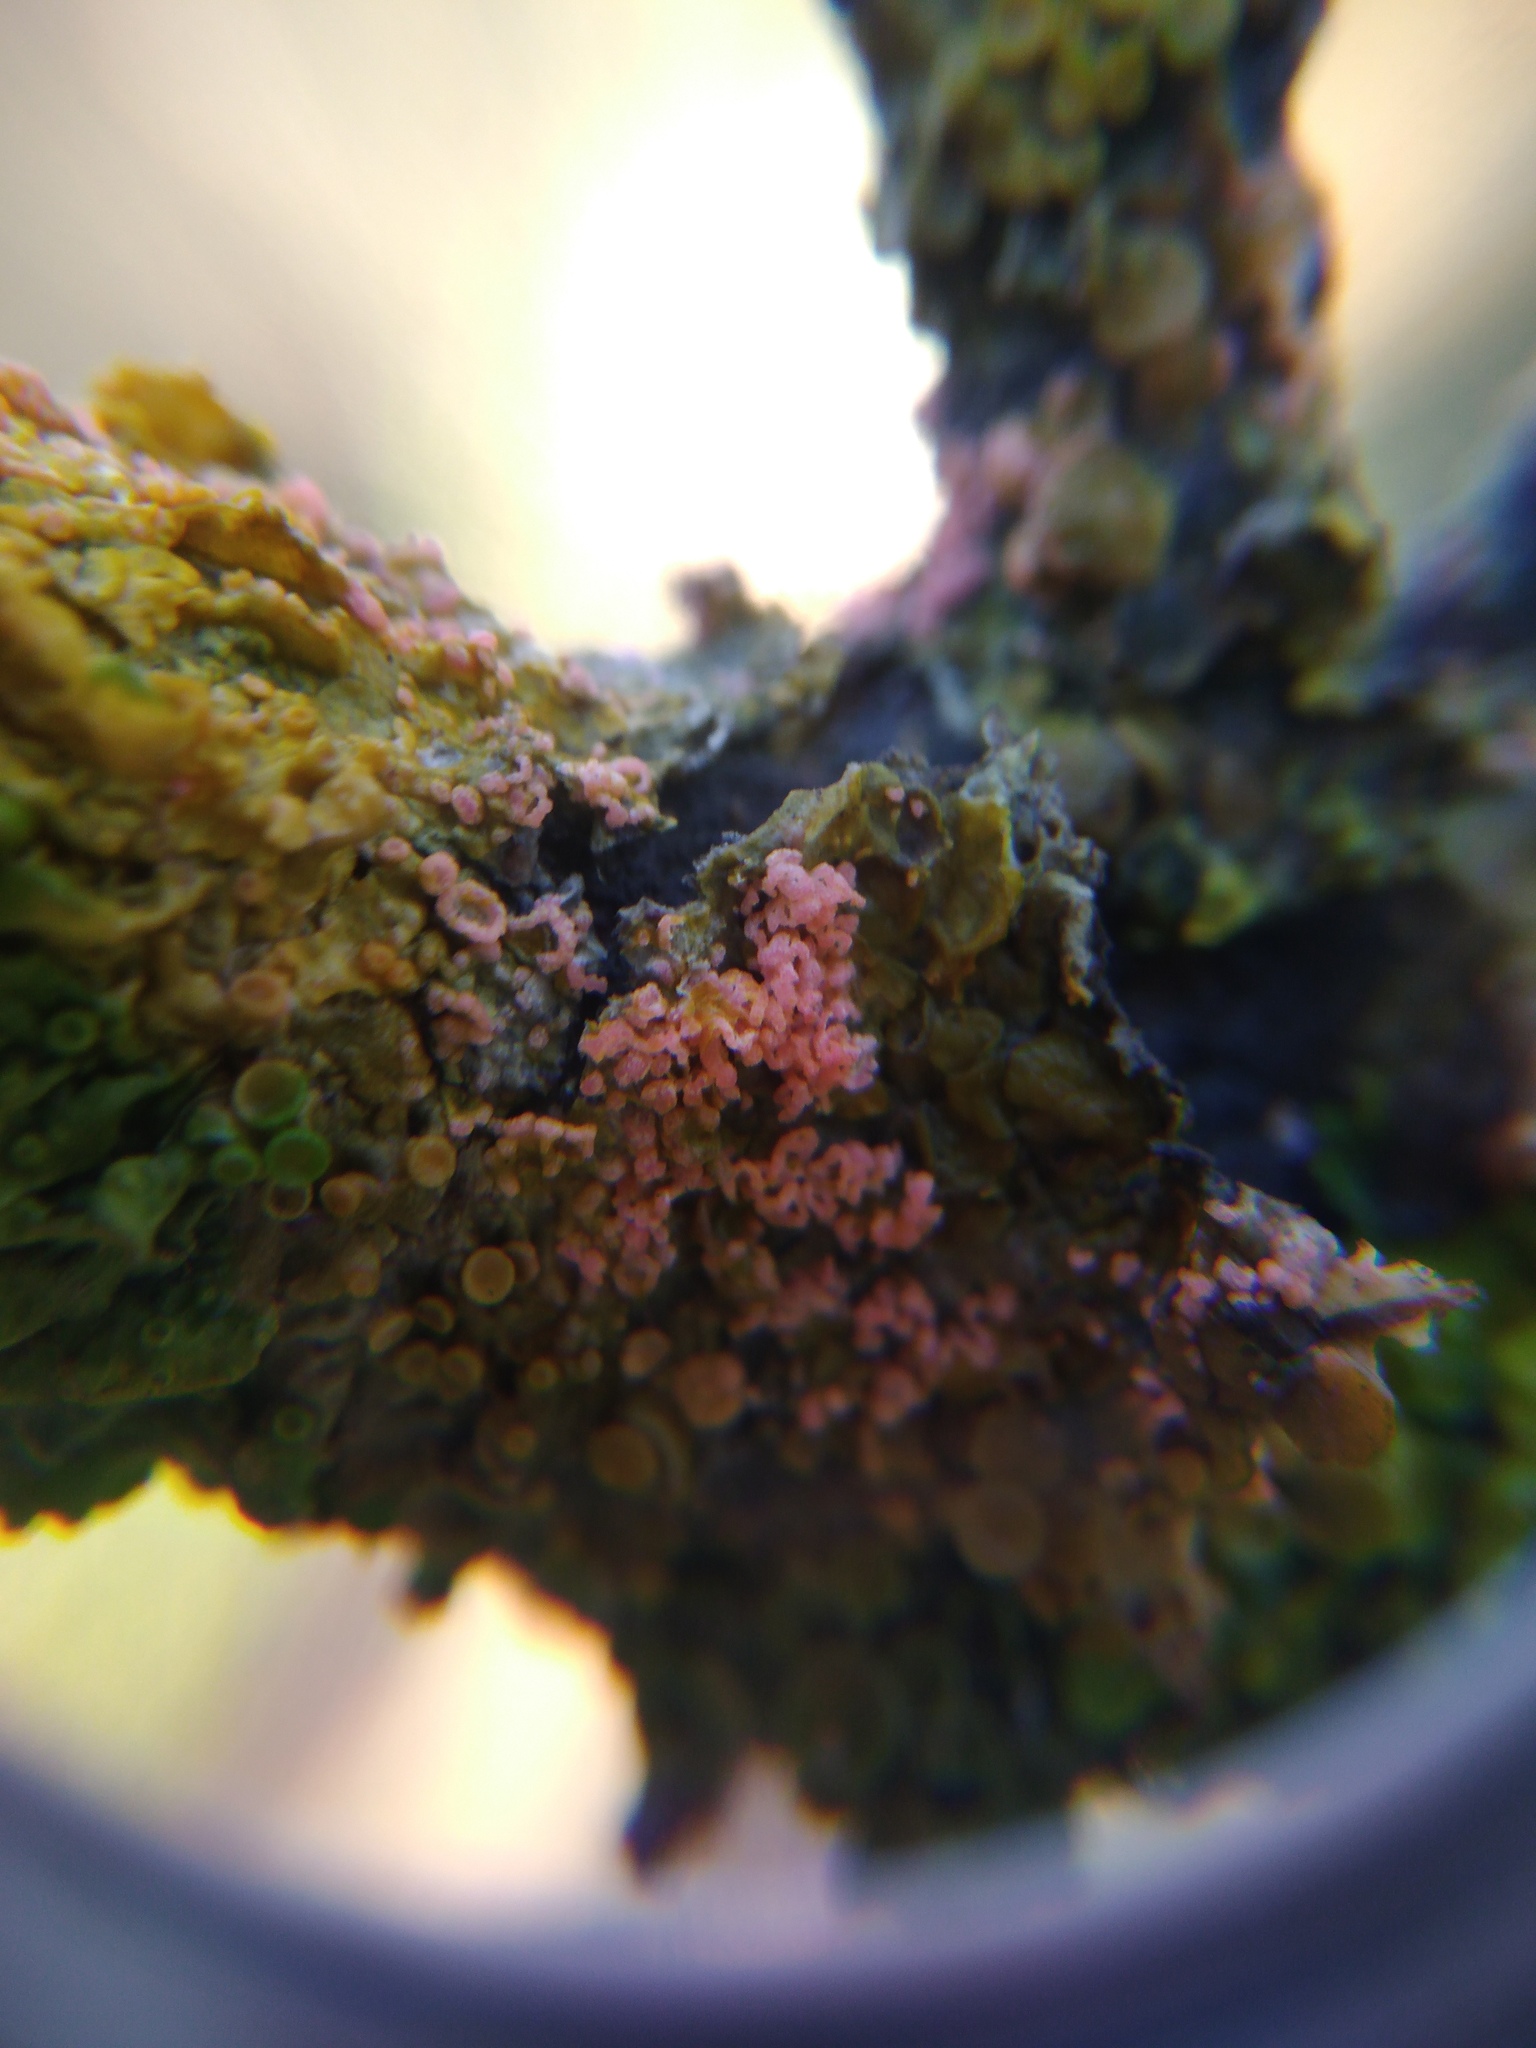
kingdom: Fungi
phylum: Basidiomycota
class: Agaricomycetes
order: Corticiales
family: Corticiaceae
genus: Marchandiomyces
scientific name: Marchandiomyces corallinus
